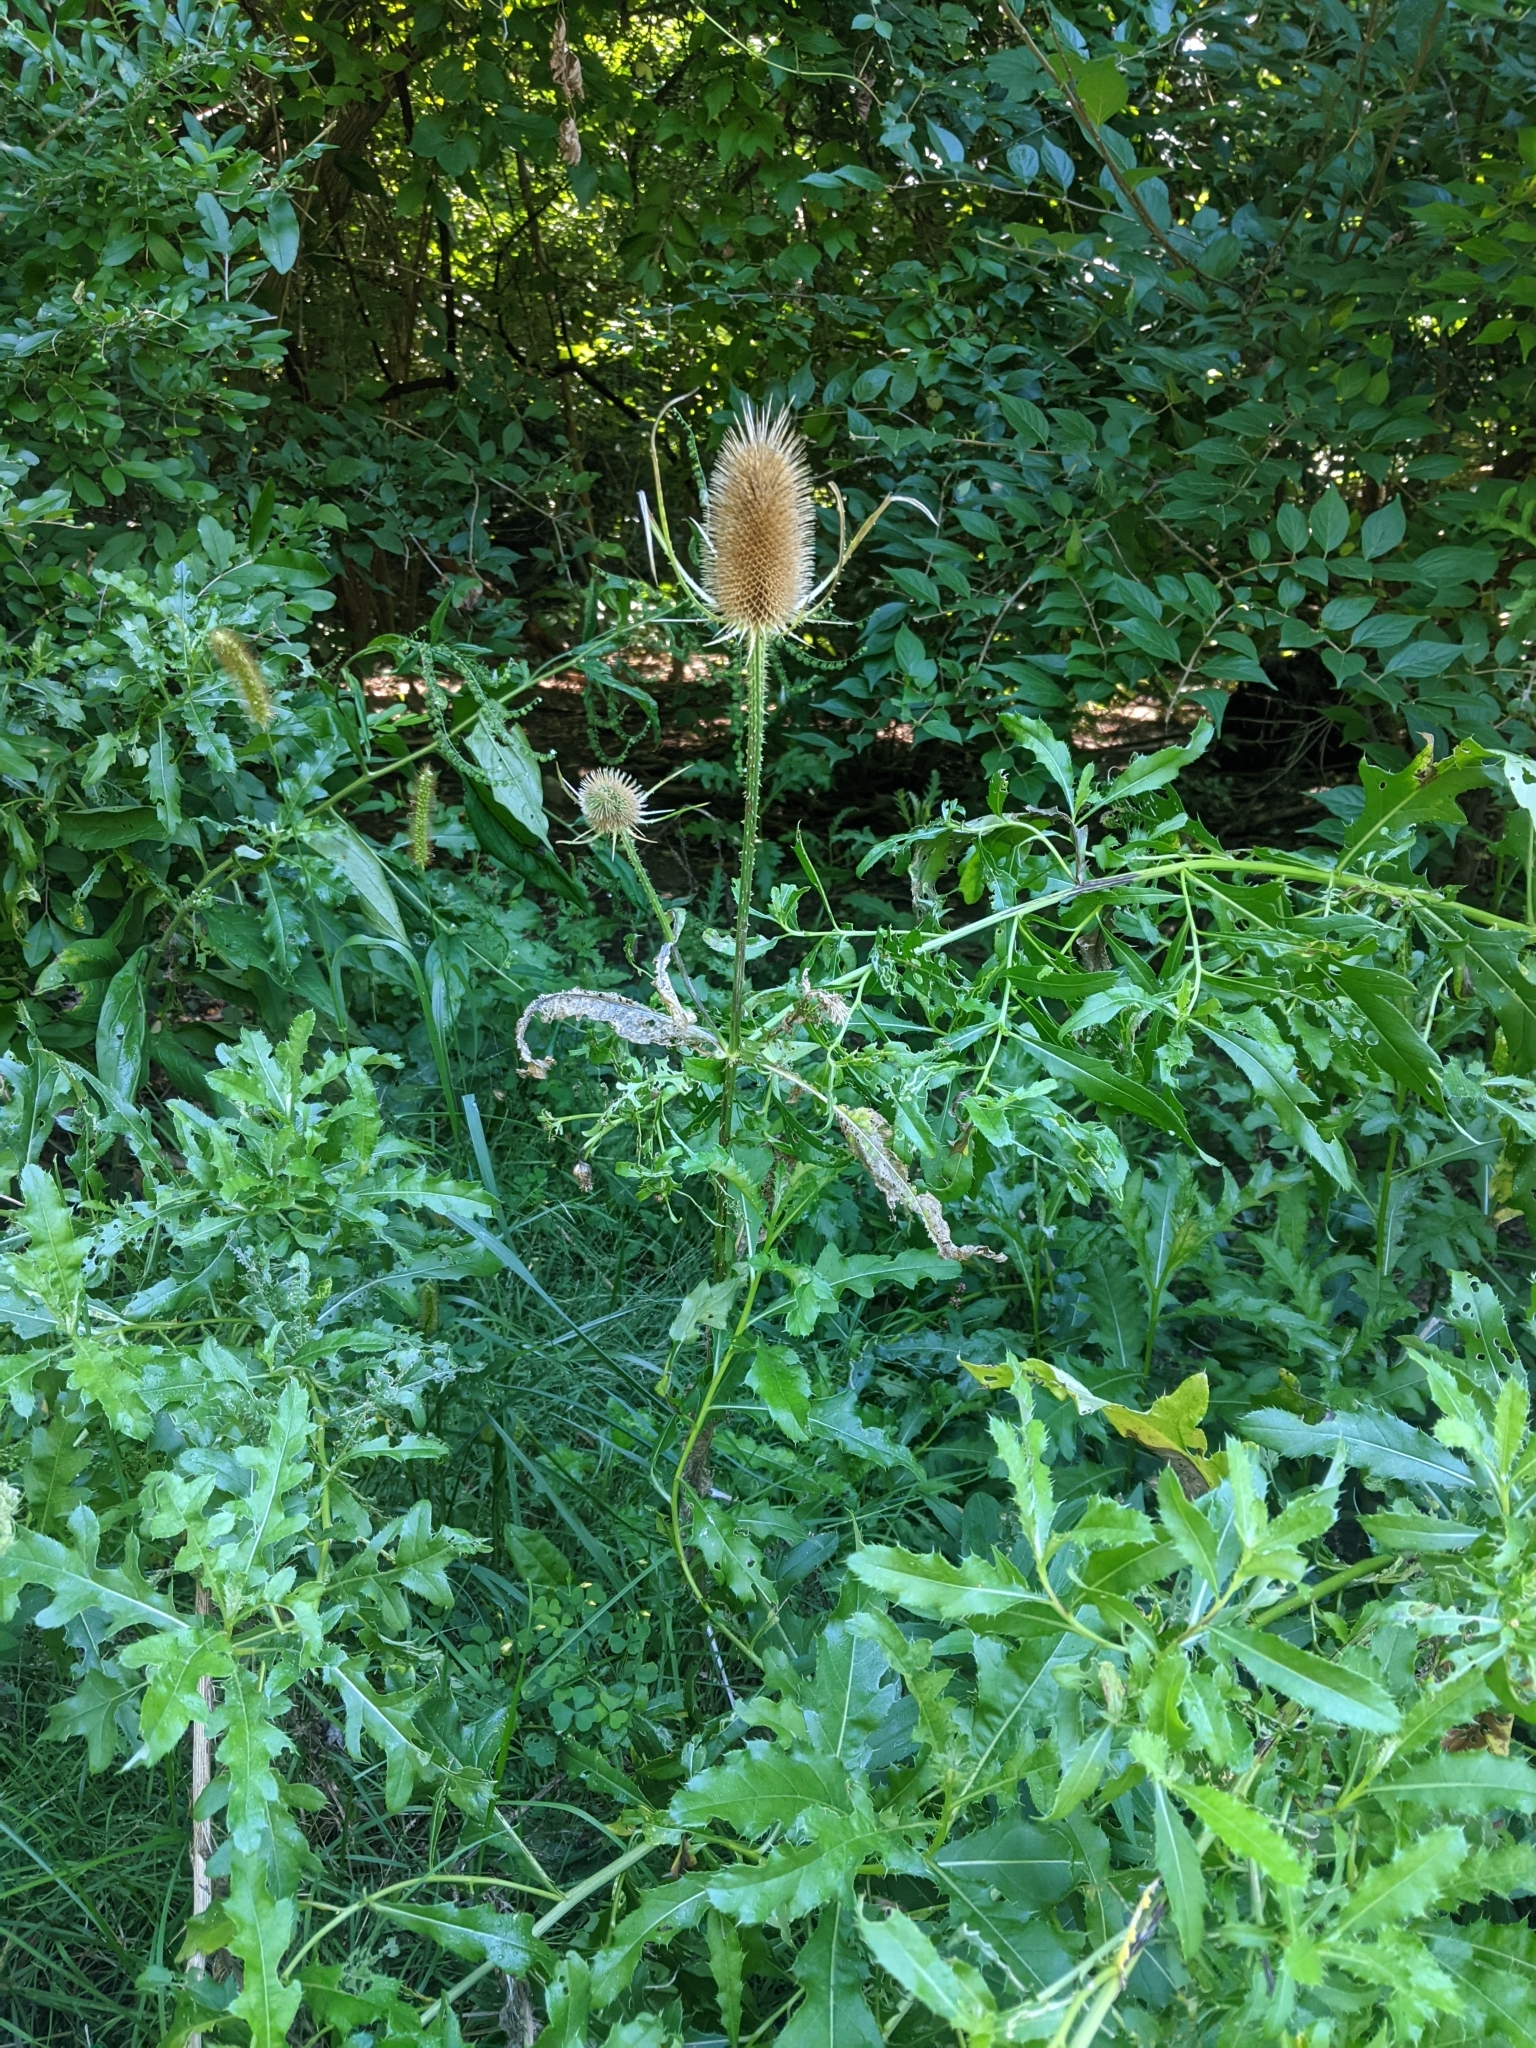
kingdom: Plantae
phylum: Tracheophyta
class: Magnoliopsida
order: Dipsacales
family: Caprifoliaceae
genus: Dipsacus
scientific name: Dipsacus fullonum
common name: Teasel
